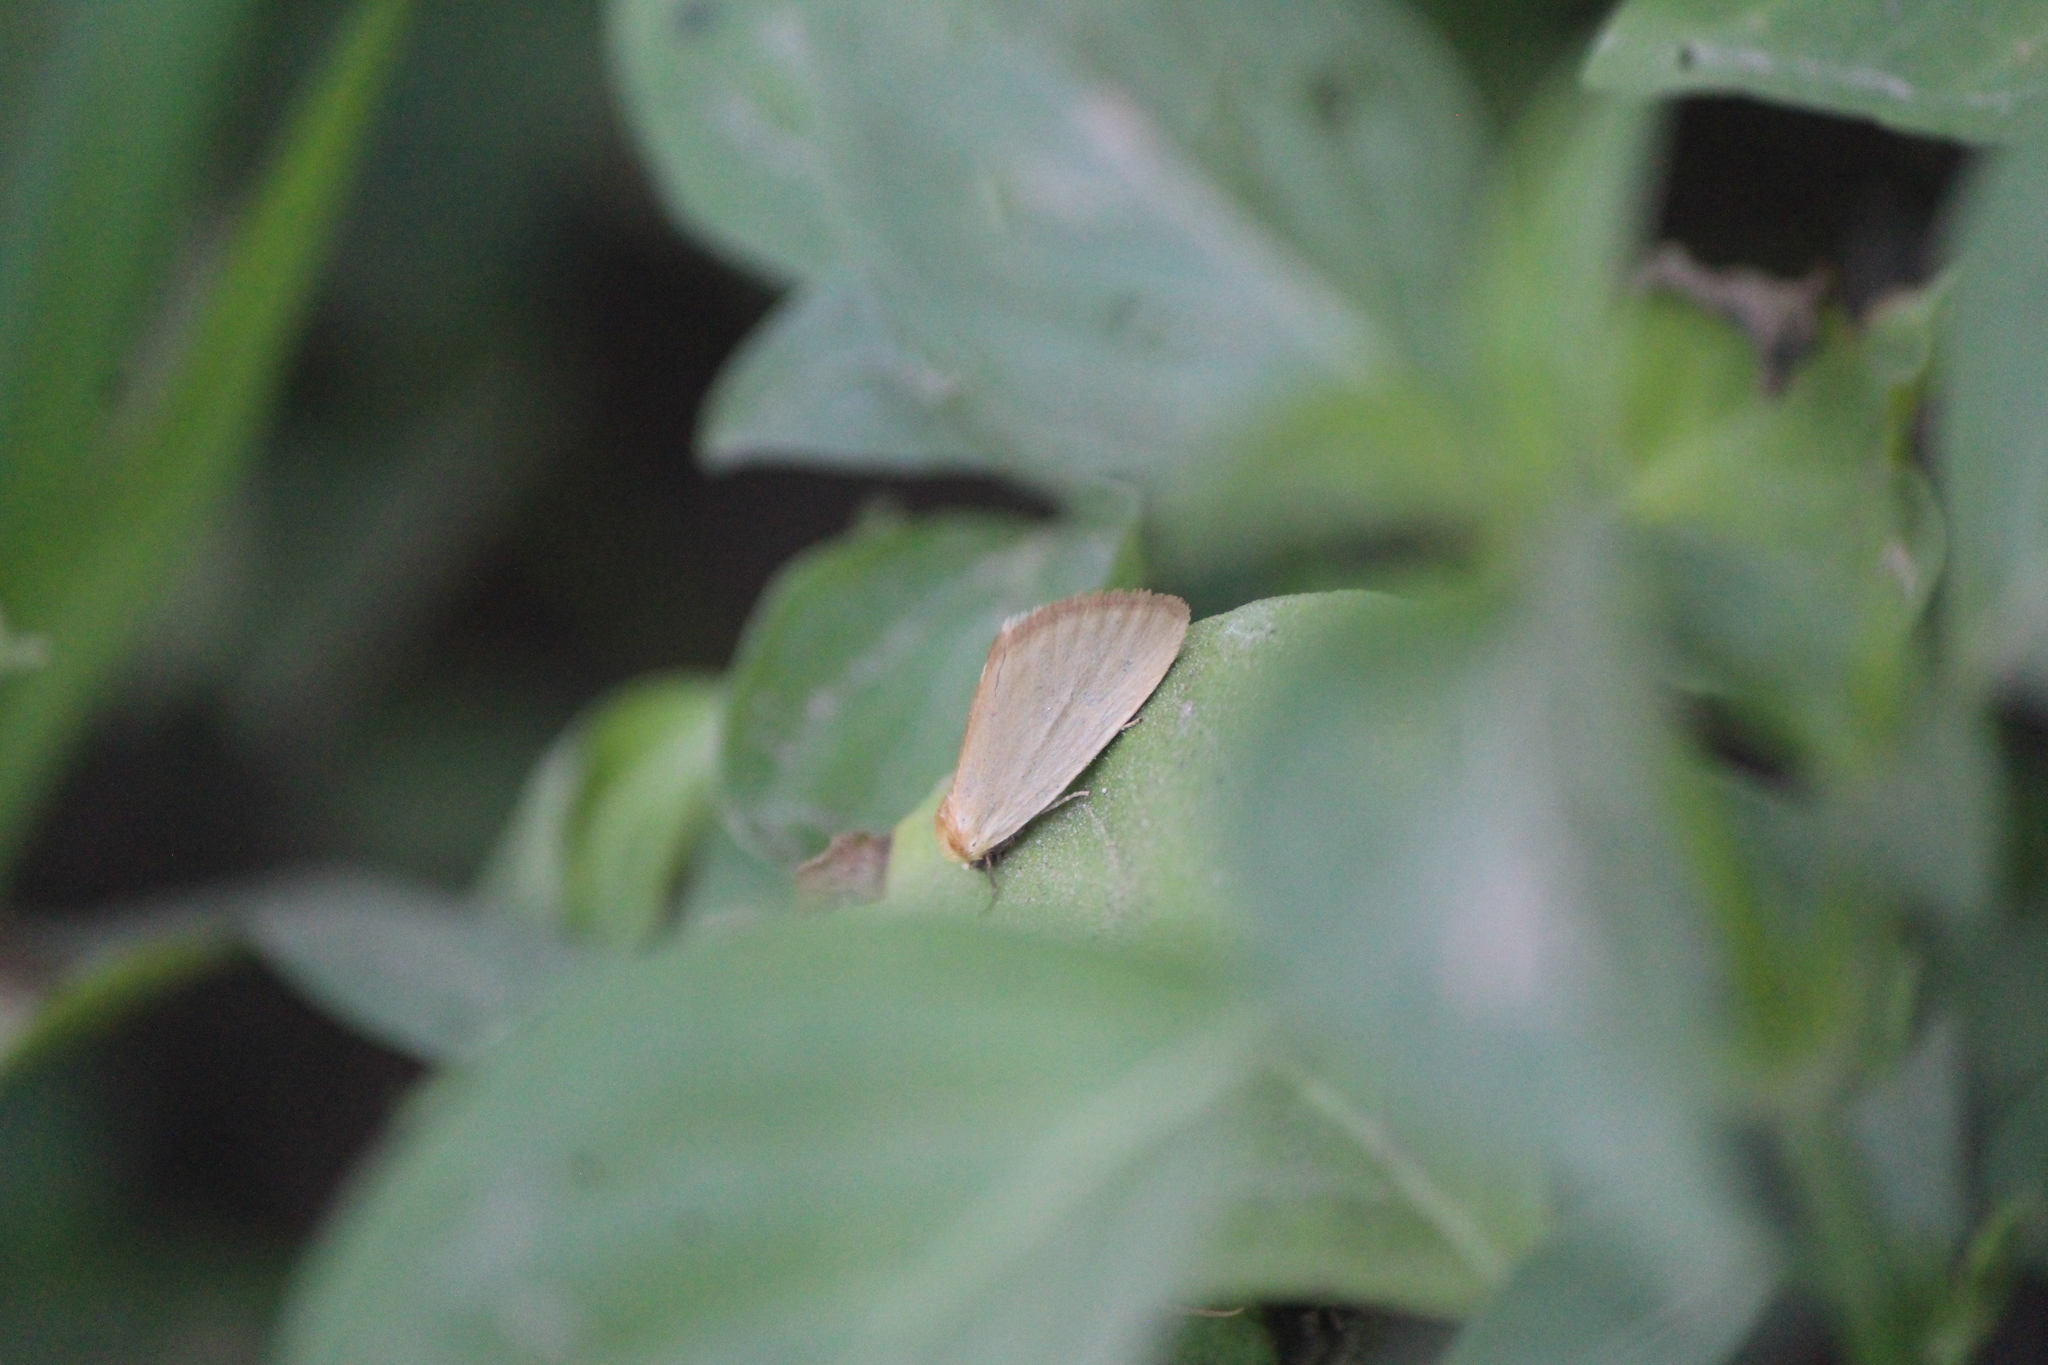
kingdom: Animalia
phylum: Arthropoda
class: Insecta
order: Lepidoptera
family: Noctuidae
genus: Chrysoecia
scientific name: Chrysoecia thoracica
